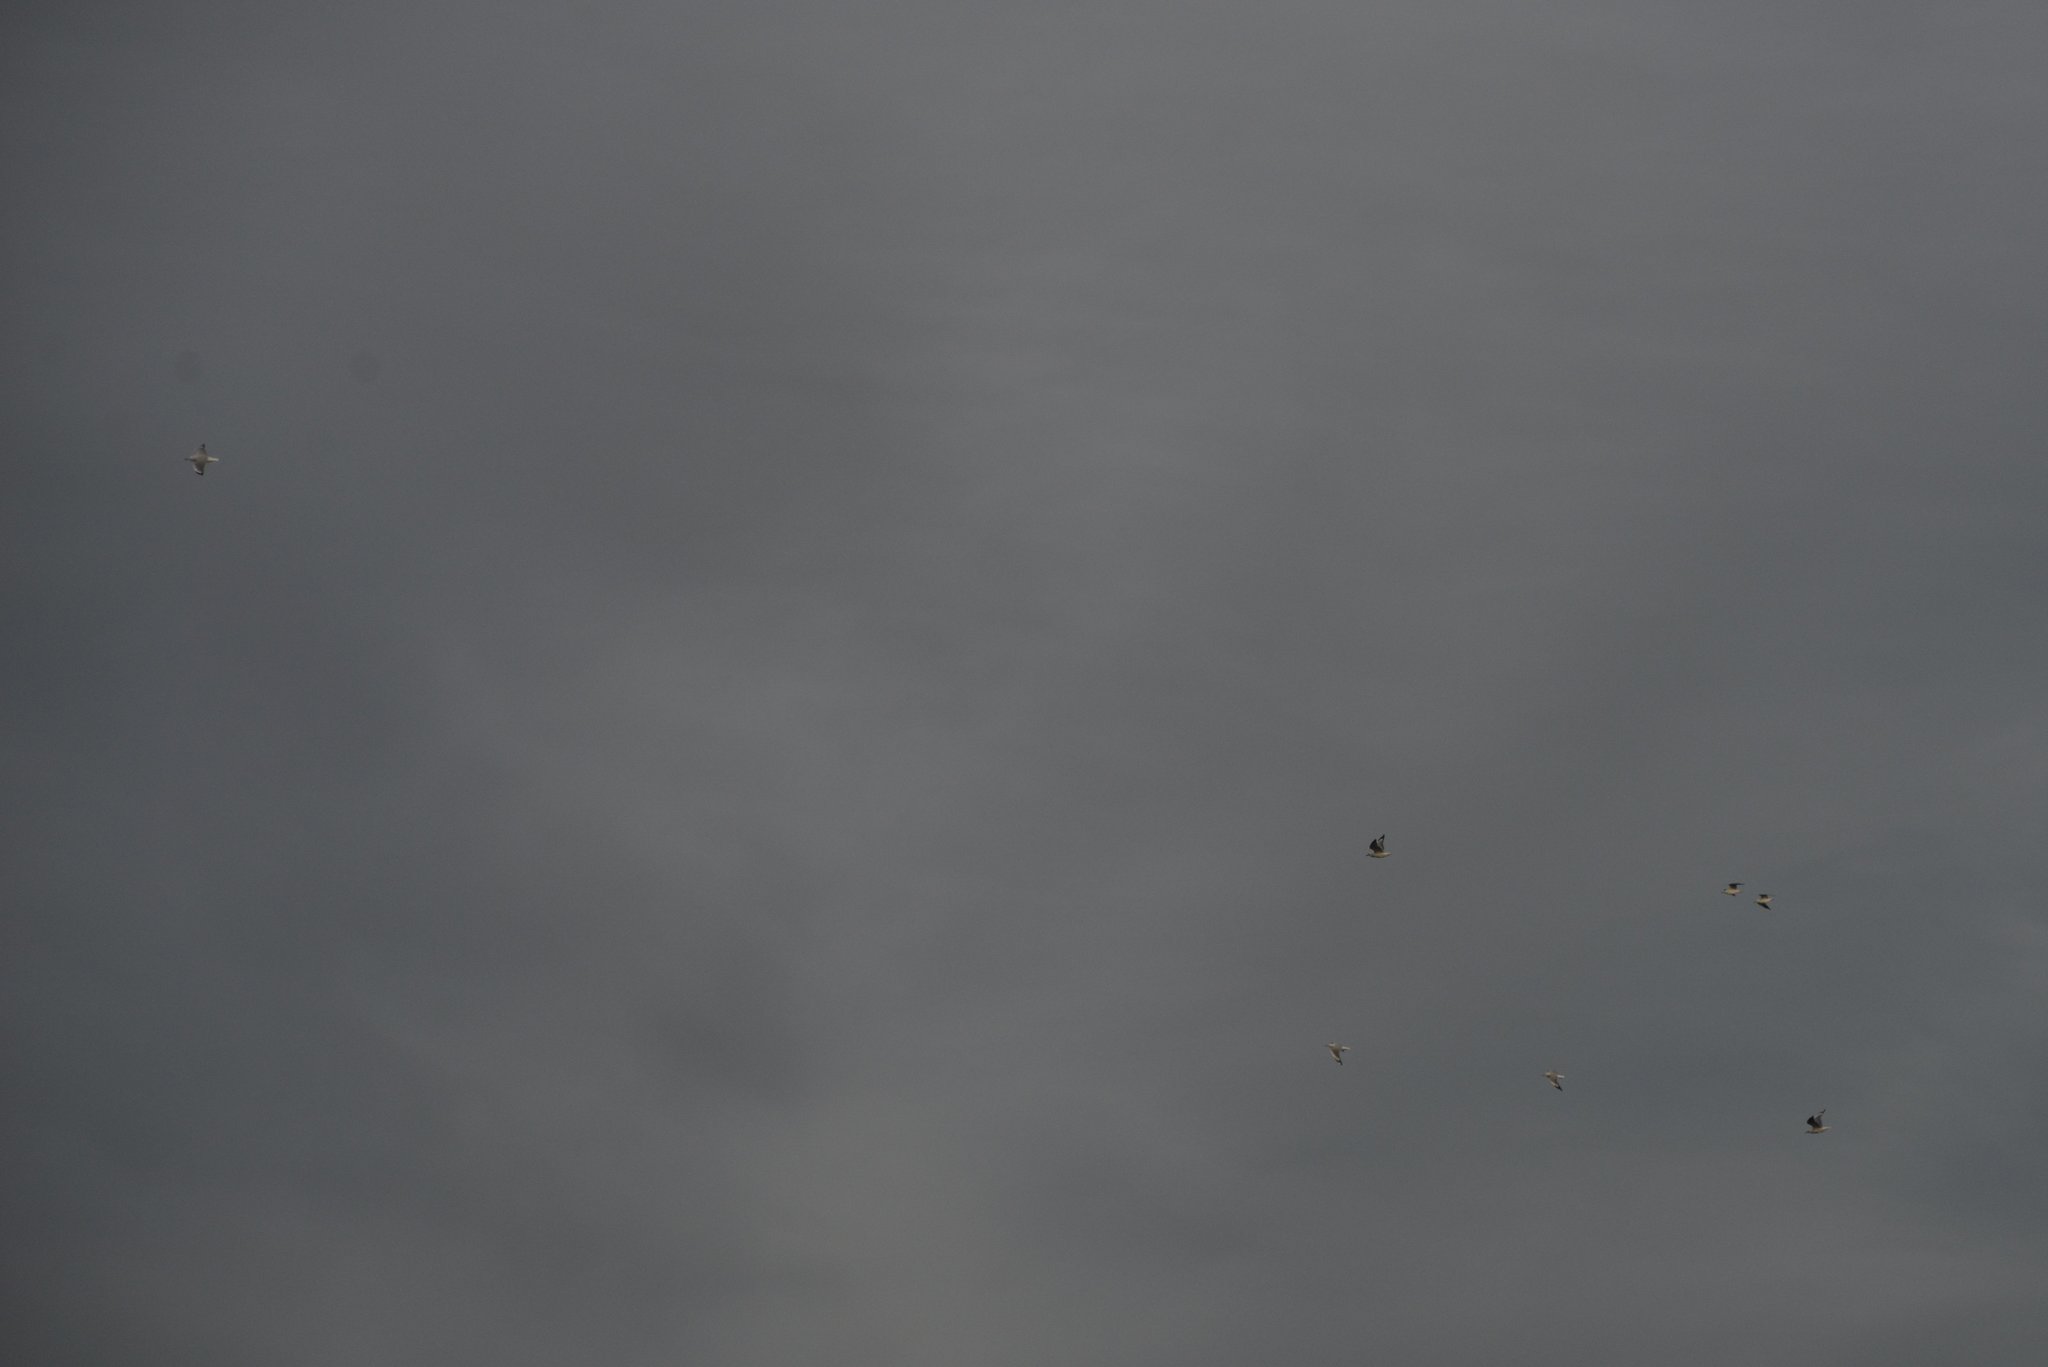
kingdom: Animalia
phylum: Chordata
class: Aves
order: Charadriiformes
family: Laridae
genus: Chroicocephalus
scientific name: Chroicocephalus novaehollandiae
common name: Silver gull
